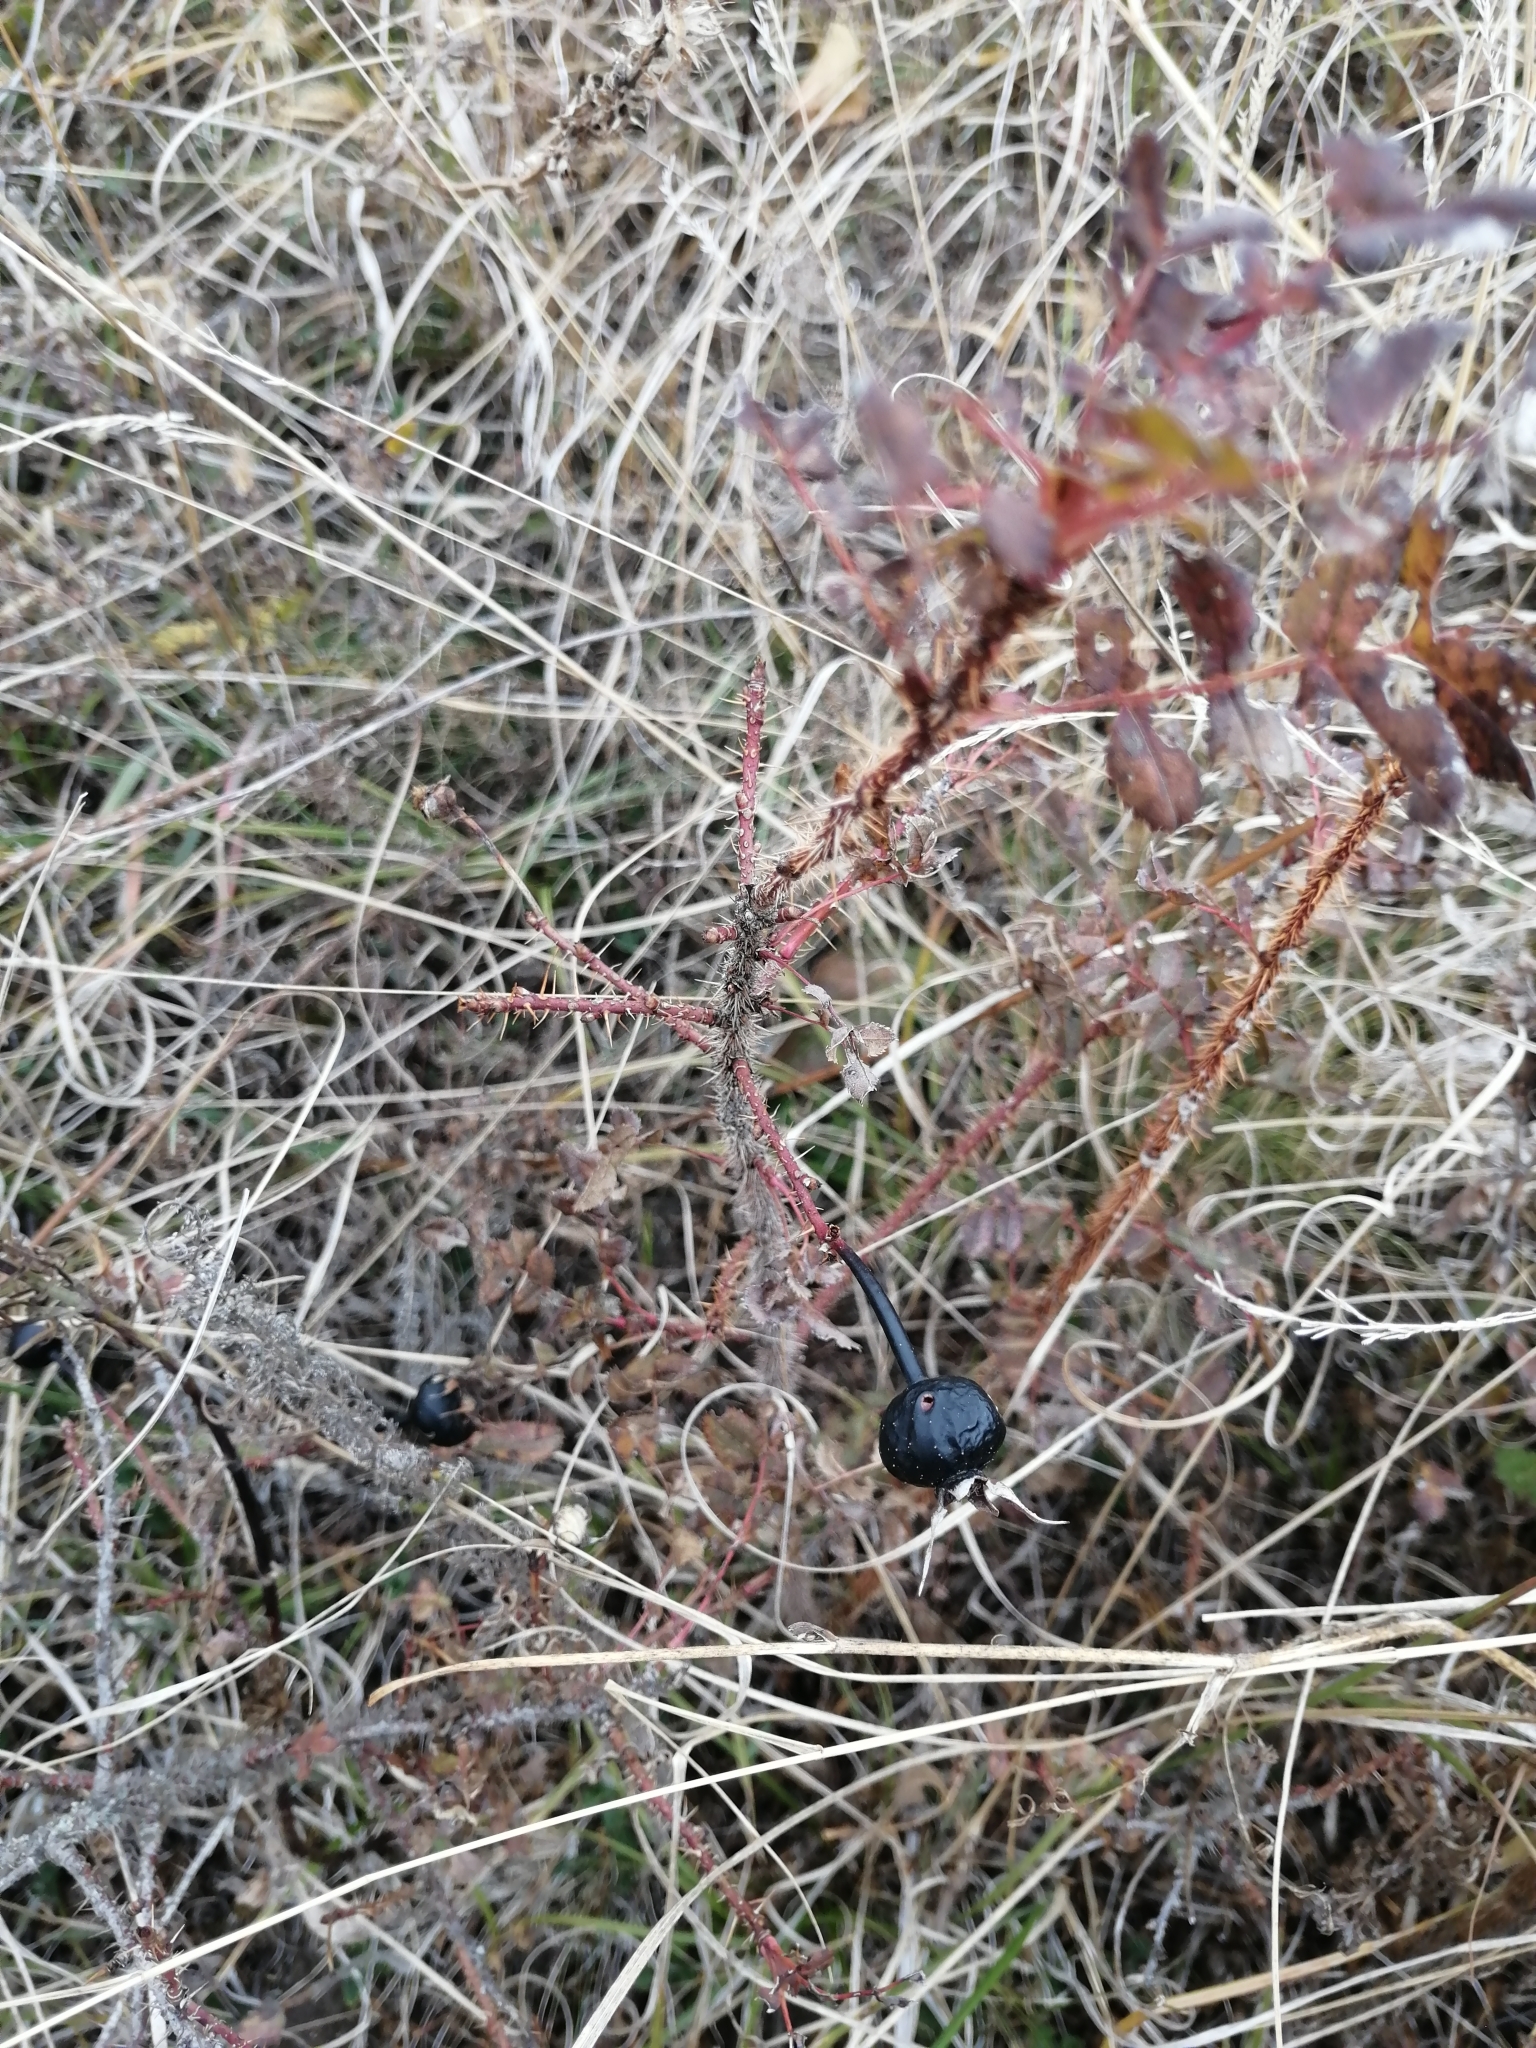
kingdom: Plantae
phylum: Tracheophyta
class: Magnoliopsida
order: Rosales
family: Rosaceae
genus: Rosa
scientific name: Rosa spinosissima
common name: Burnet rose
